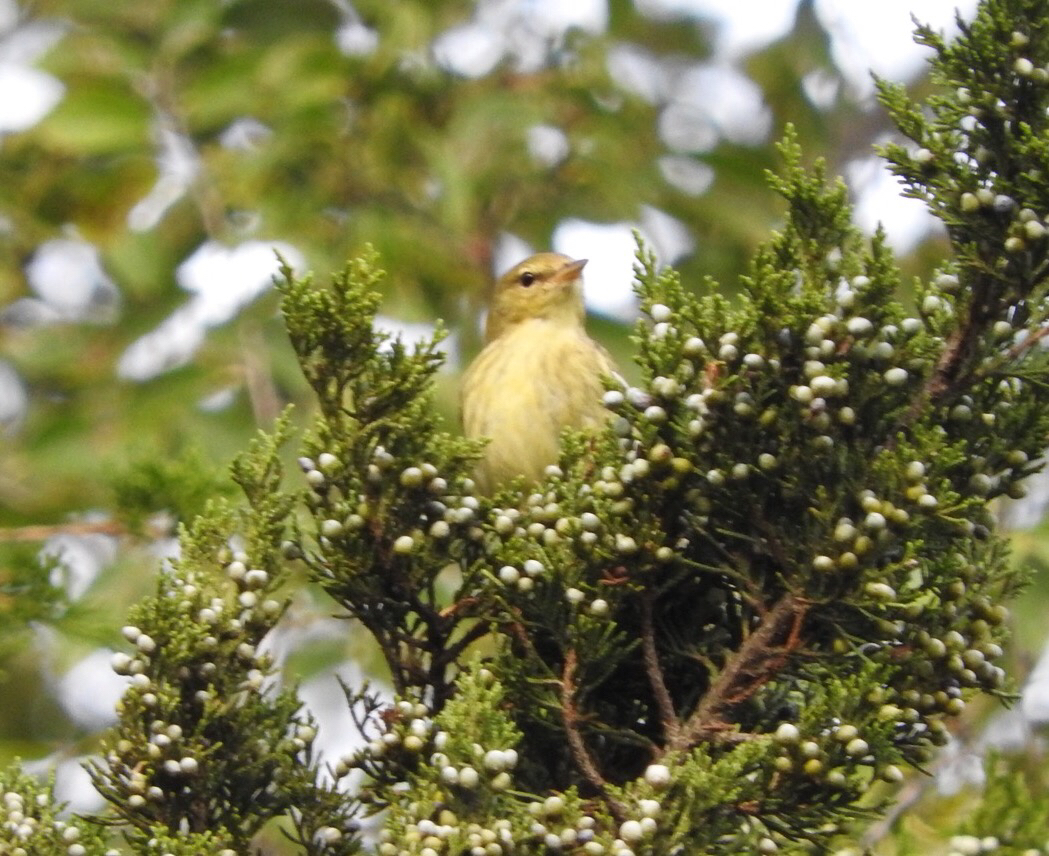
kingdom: Animalia
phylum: Chordata
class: Aves
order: Passeriformes
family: Parulidae
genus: Setophaga
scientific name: Setophaga striata
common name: Blackpoll warbler
